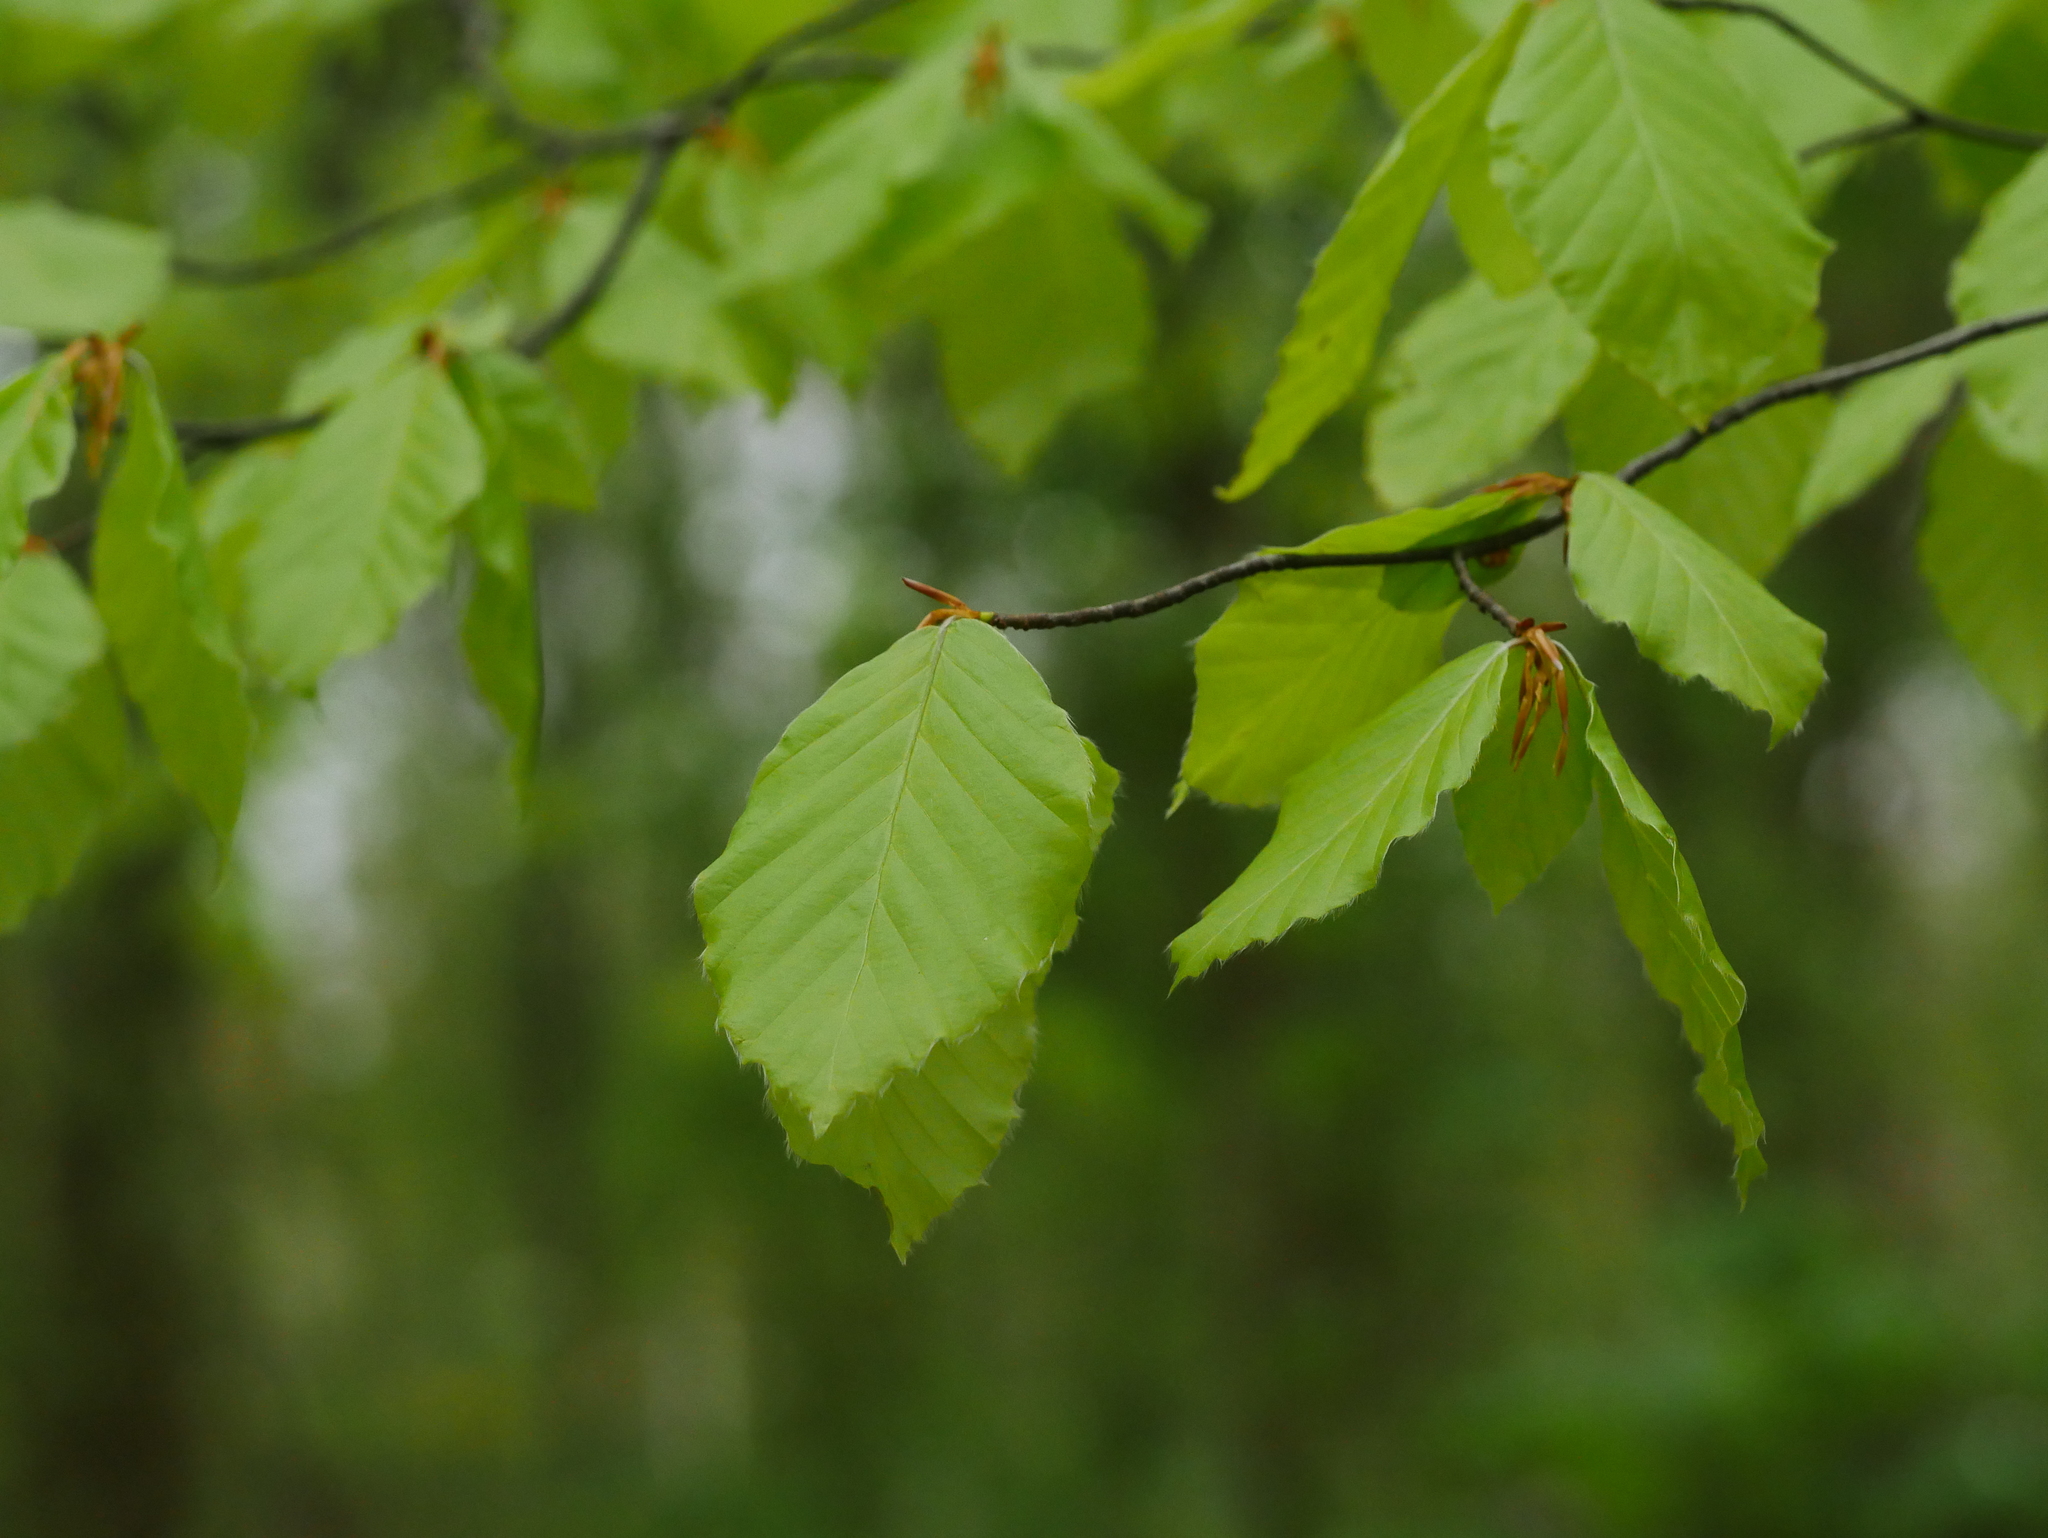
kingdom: Plantae
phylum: Tracheophyta
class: Magnoliopsida
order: Fagales
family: Fagaceae
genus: Fagus
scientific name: Fagus sylvatica
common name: Beech
